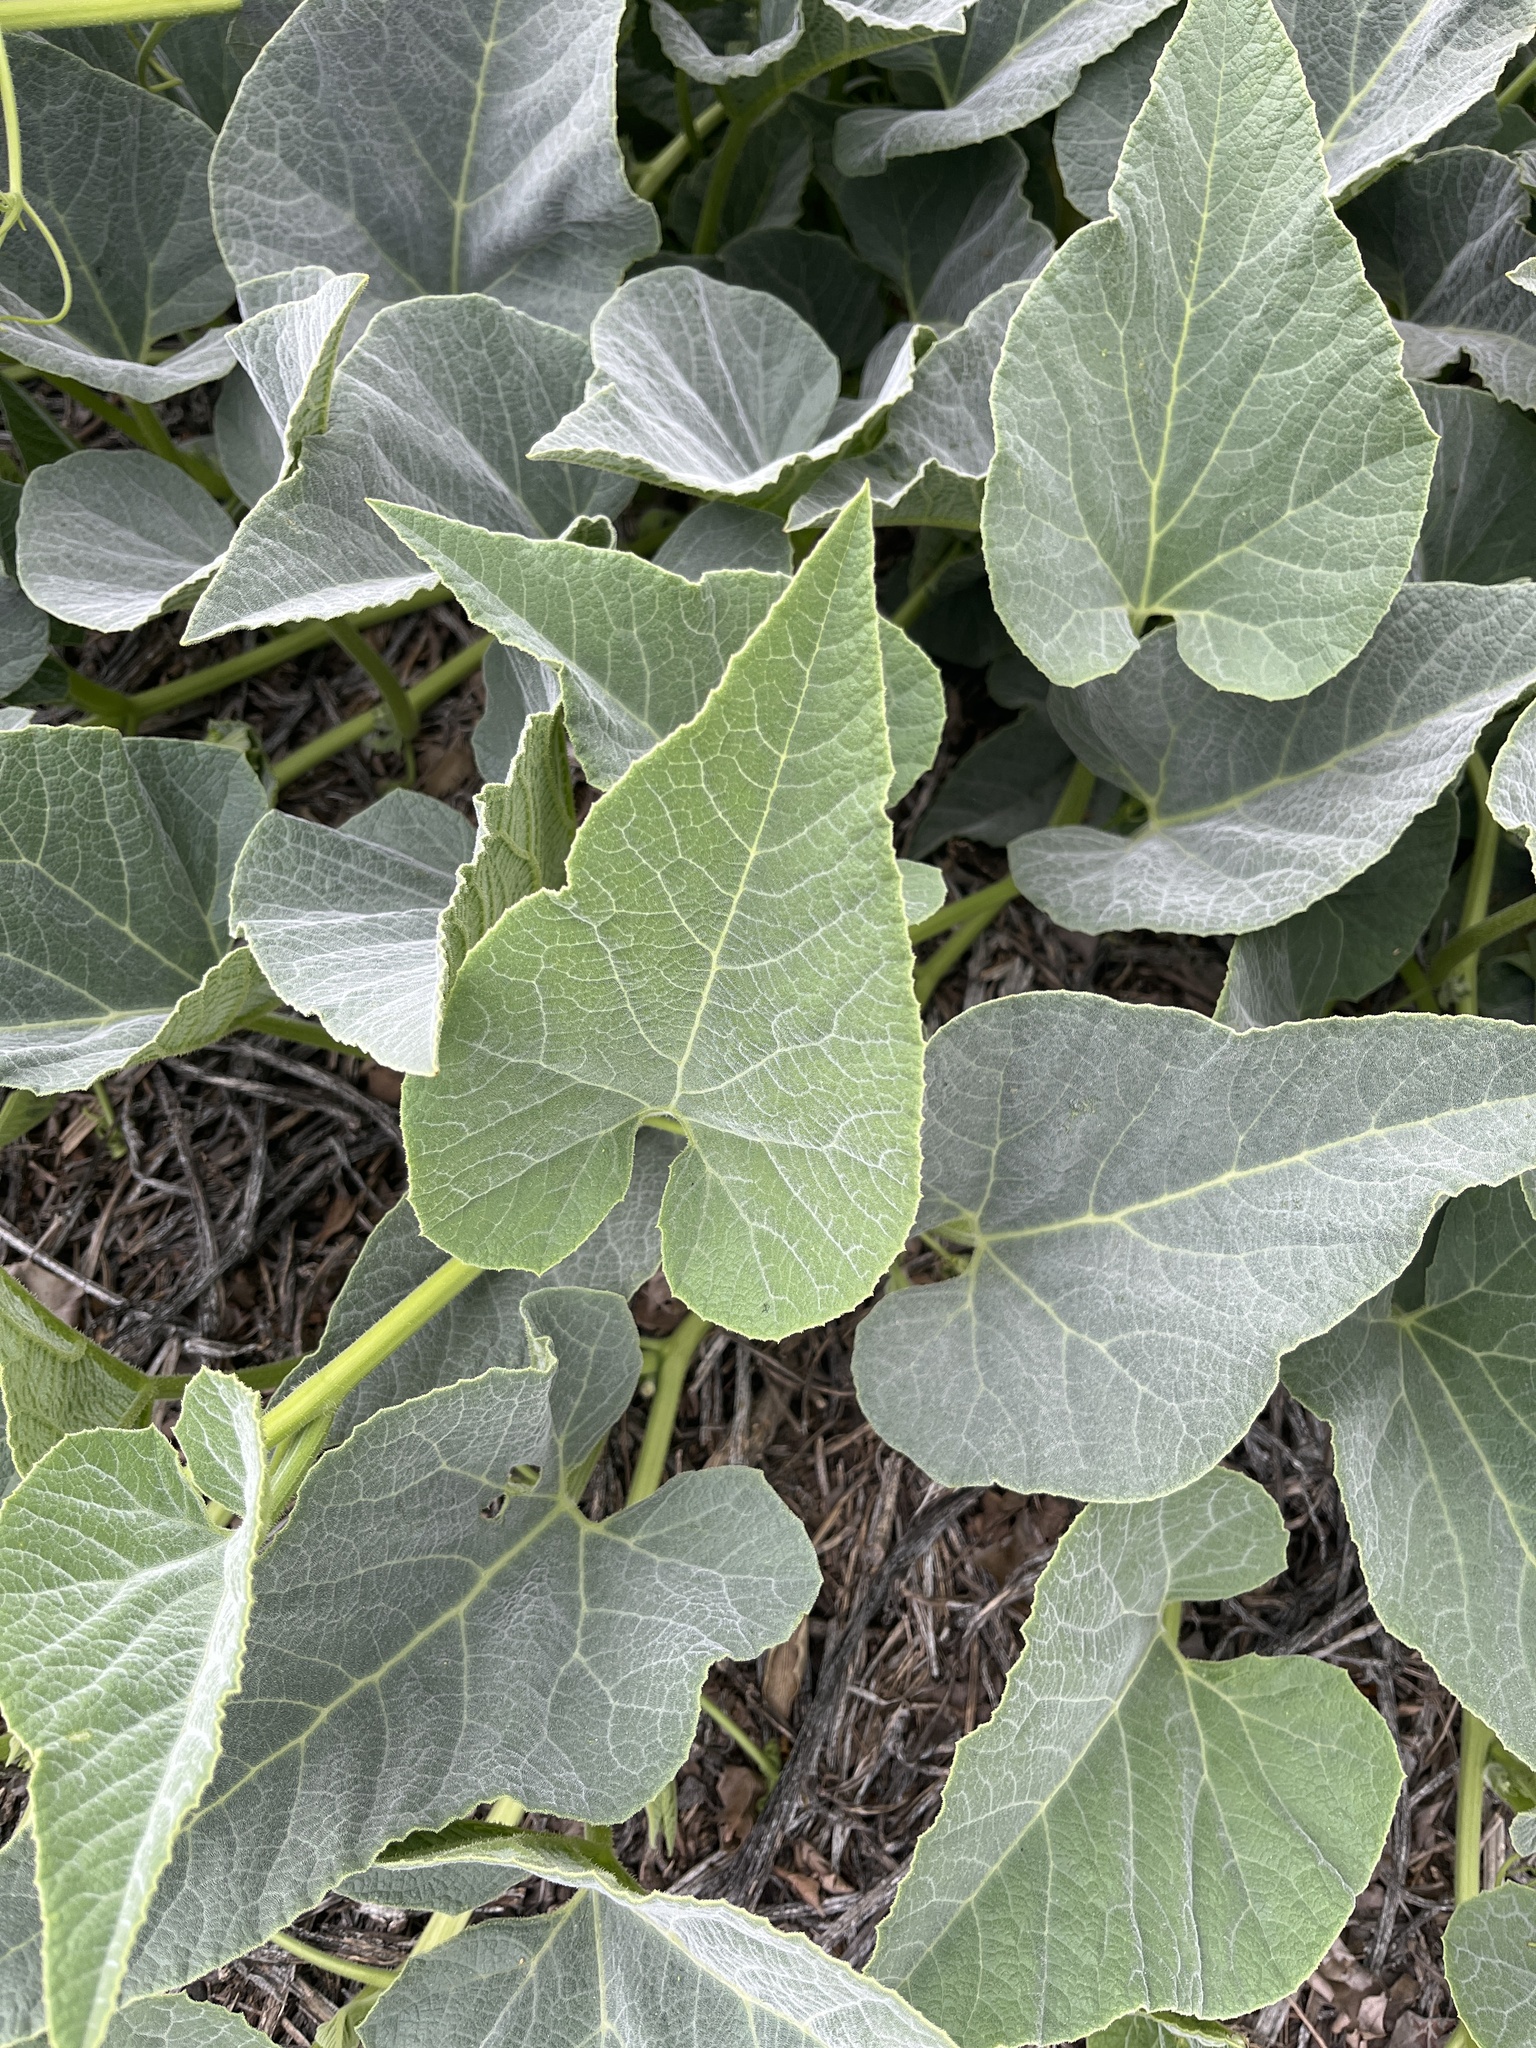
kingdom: Plantae
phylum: Tracheophyta
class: Magnoliopsida
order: Cucurbitales
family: Cucurbitaceae
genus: Cucurbita
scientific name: Cucurbita foetidissima
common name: Buffalo gourd
